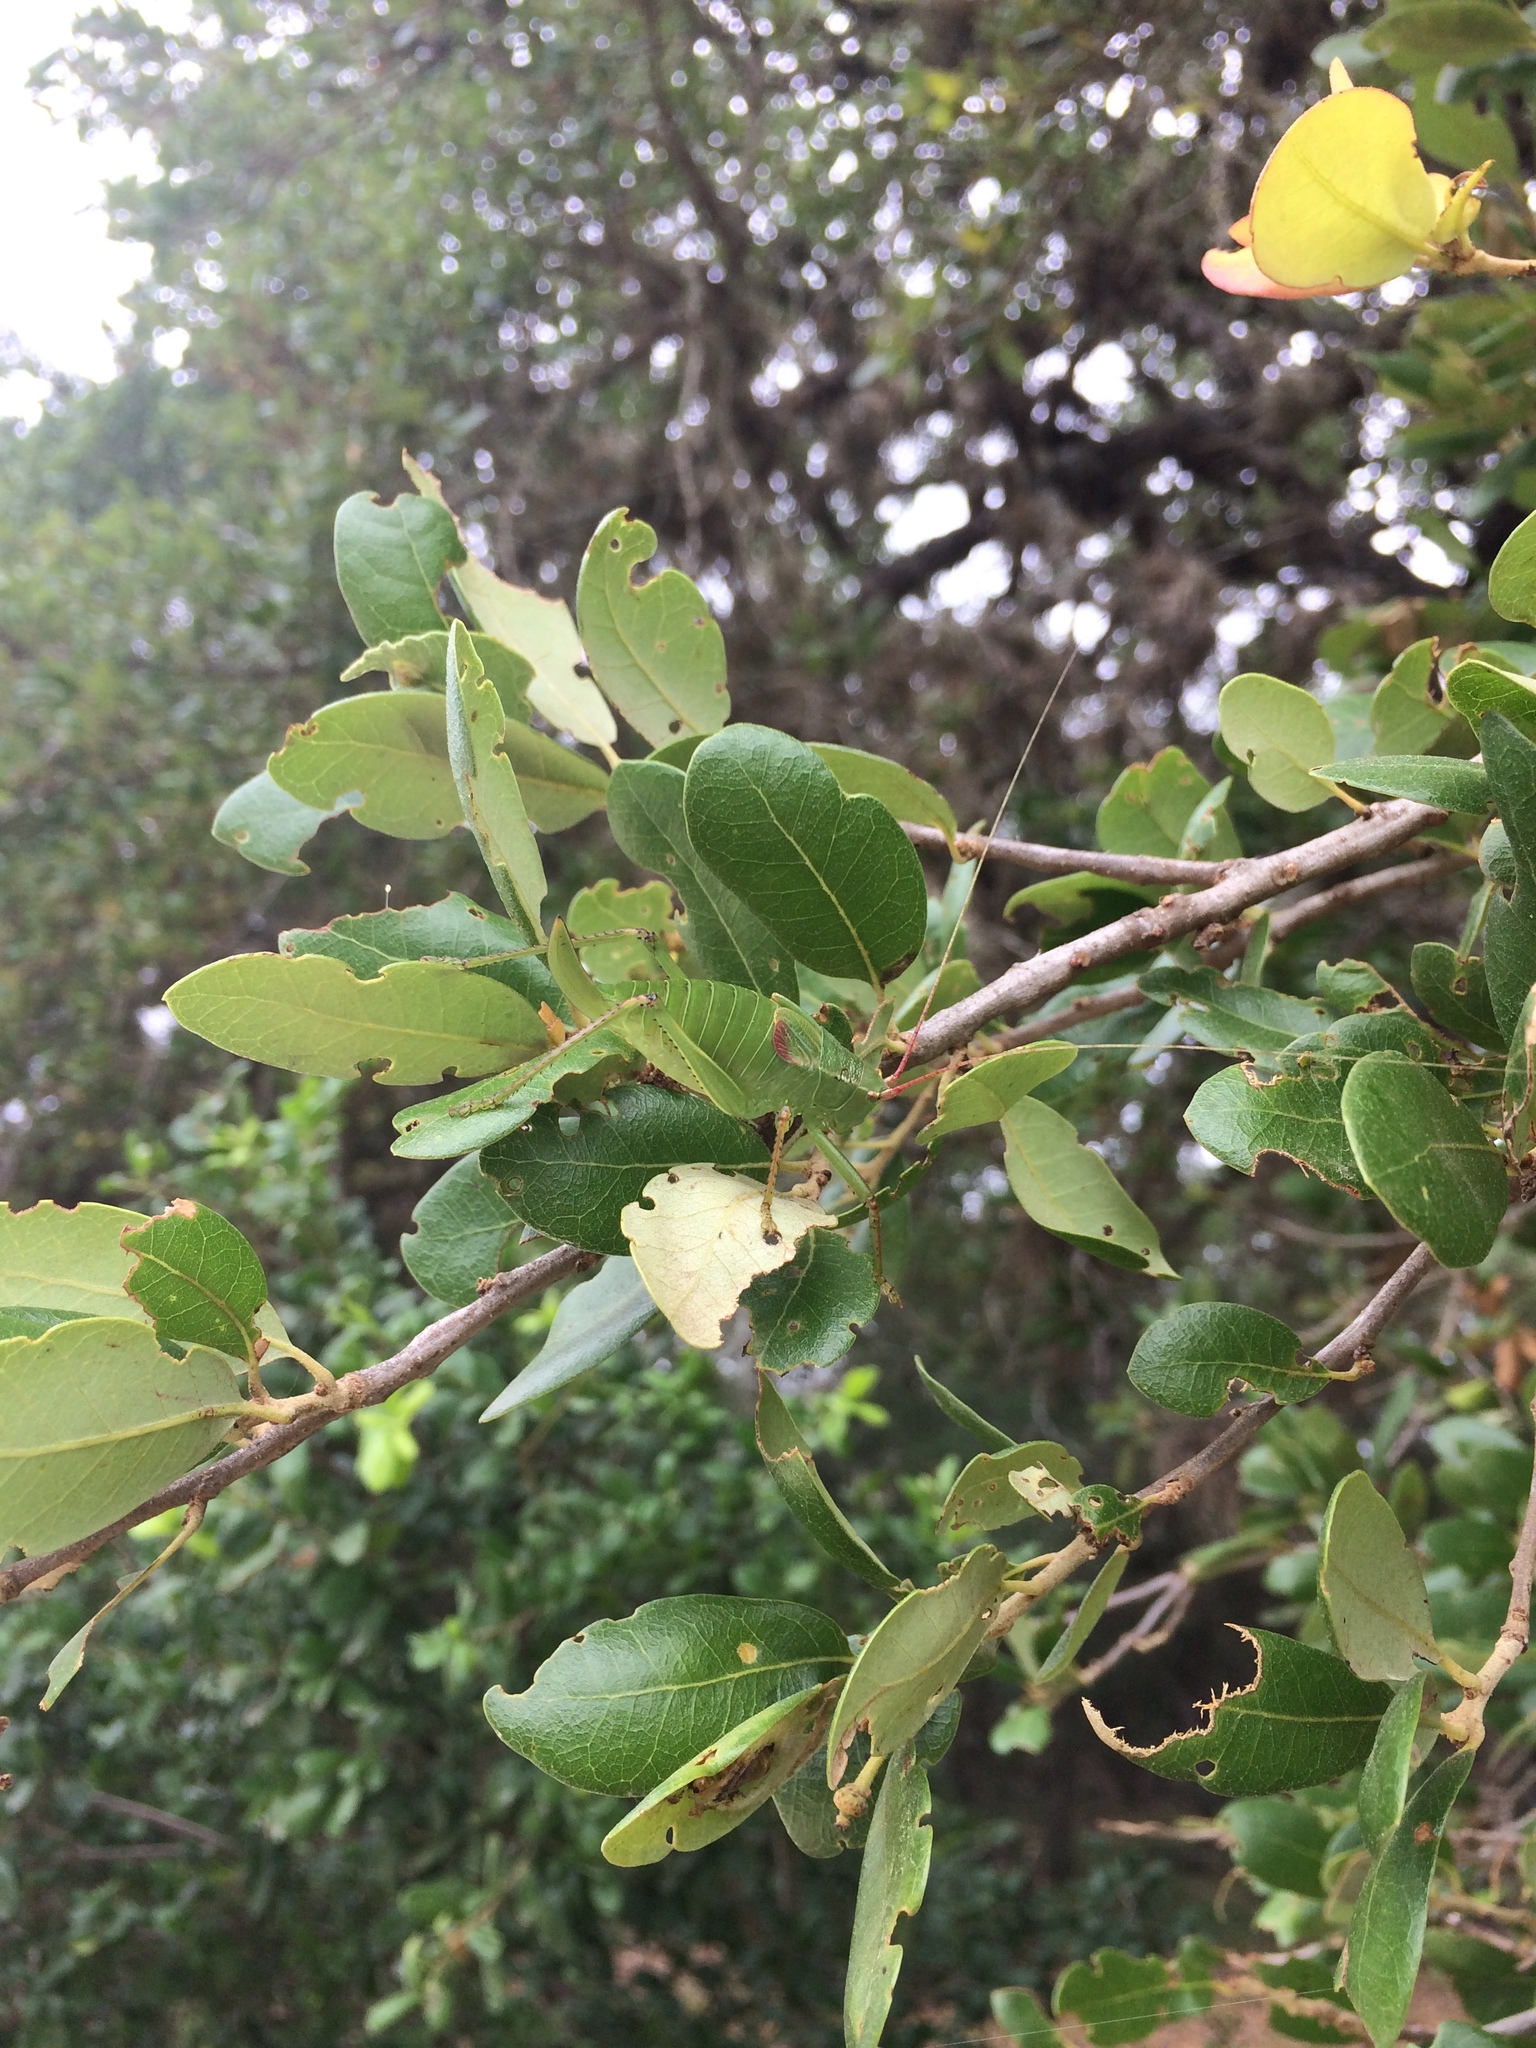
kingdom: Animalia
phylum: Arthropoda
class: Insecta
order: Orthoptera
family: Tettigoniidae
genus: Paracyrtophyllus
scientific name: Paracyrtophyllus robustus
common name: Central texas leaf katydid
